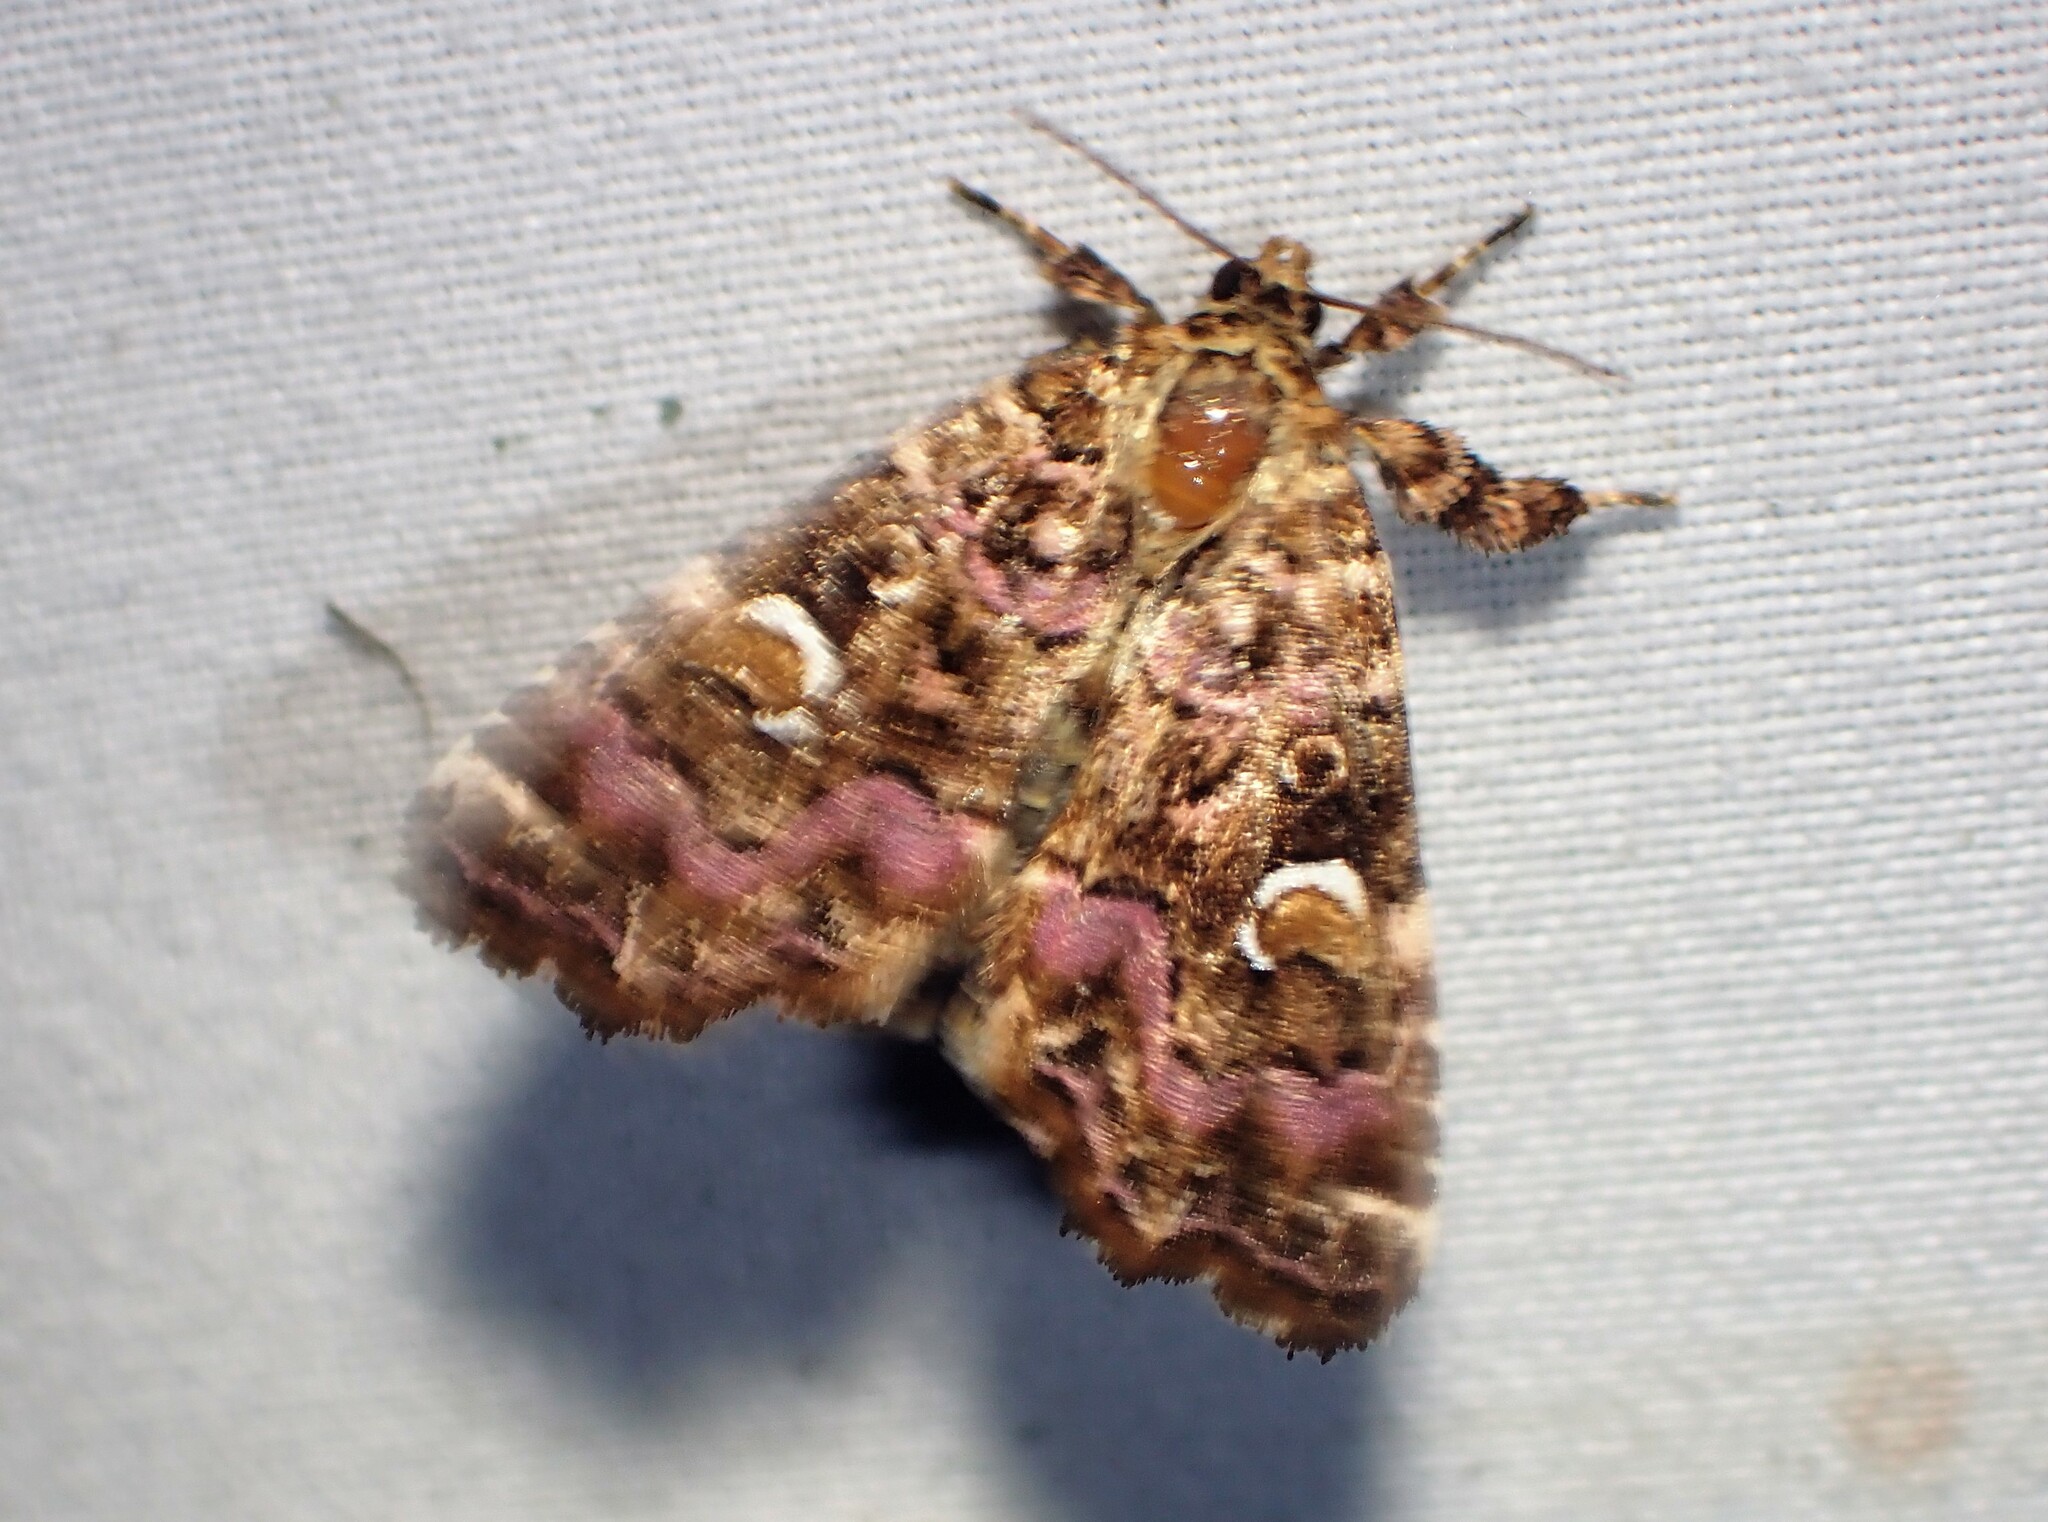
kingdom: Animalia
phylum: Arthropoda
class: Insecta
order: Lepidoptera
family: Noctuidae
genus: Callopistria
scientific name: Callopistria mollissima
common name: Pink-shaded fern moth
